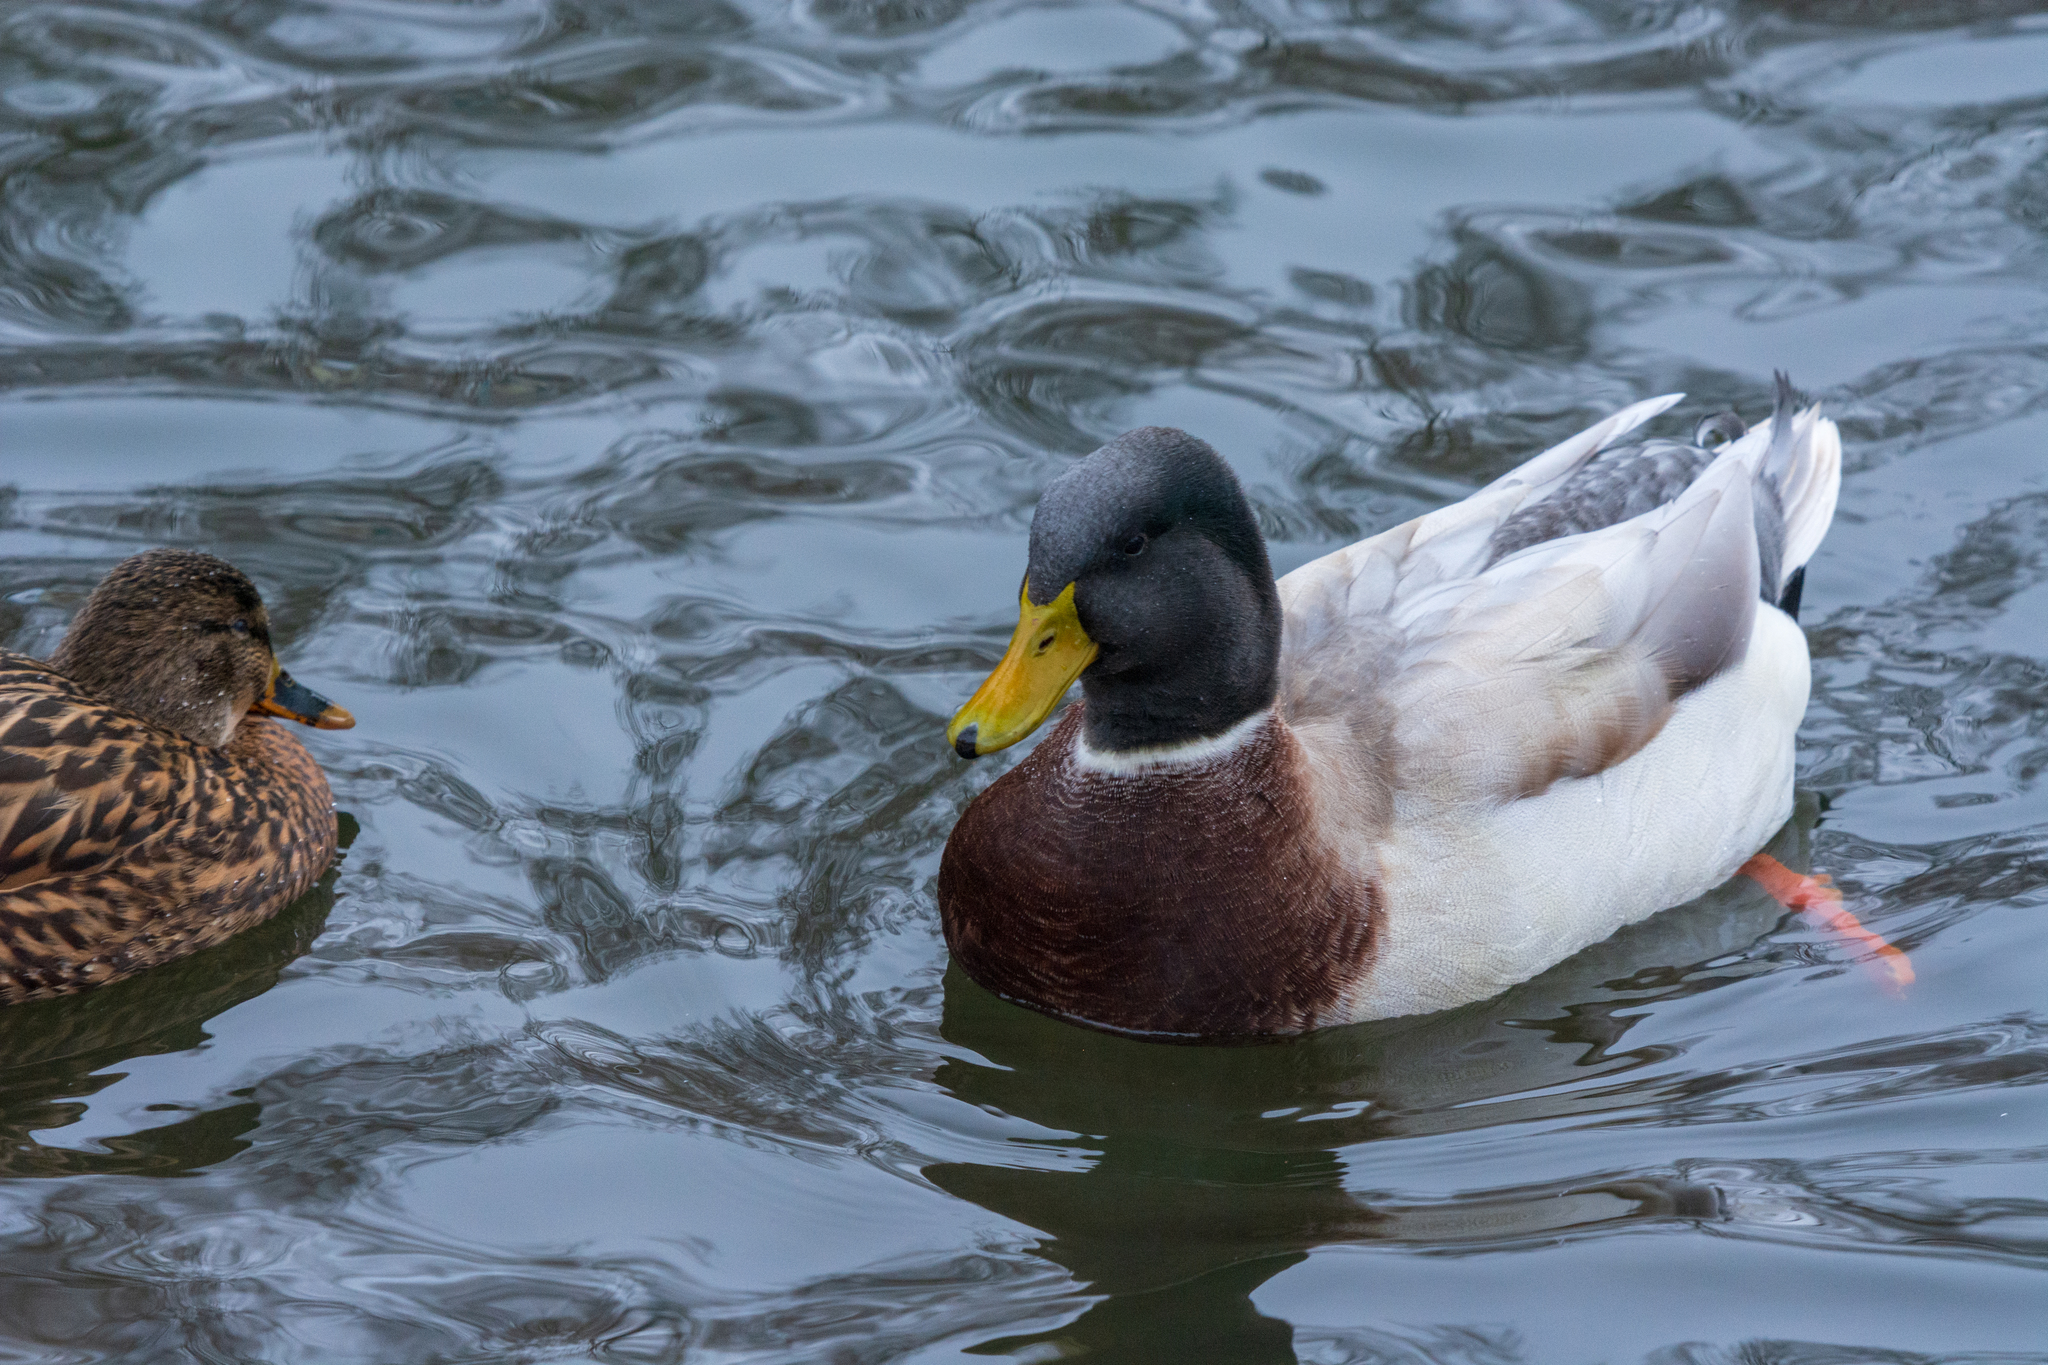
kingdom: Animalia
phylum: Chordata
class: Aves
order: Anseriformes
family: Anatidae
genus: Anas
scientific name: Anas platyrhynchos
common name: Mallard
